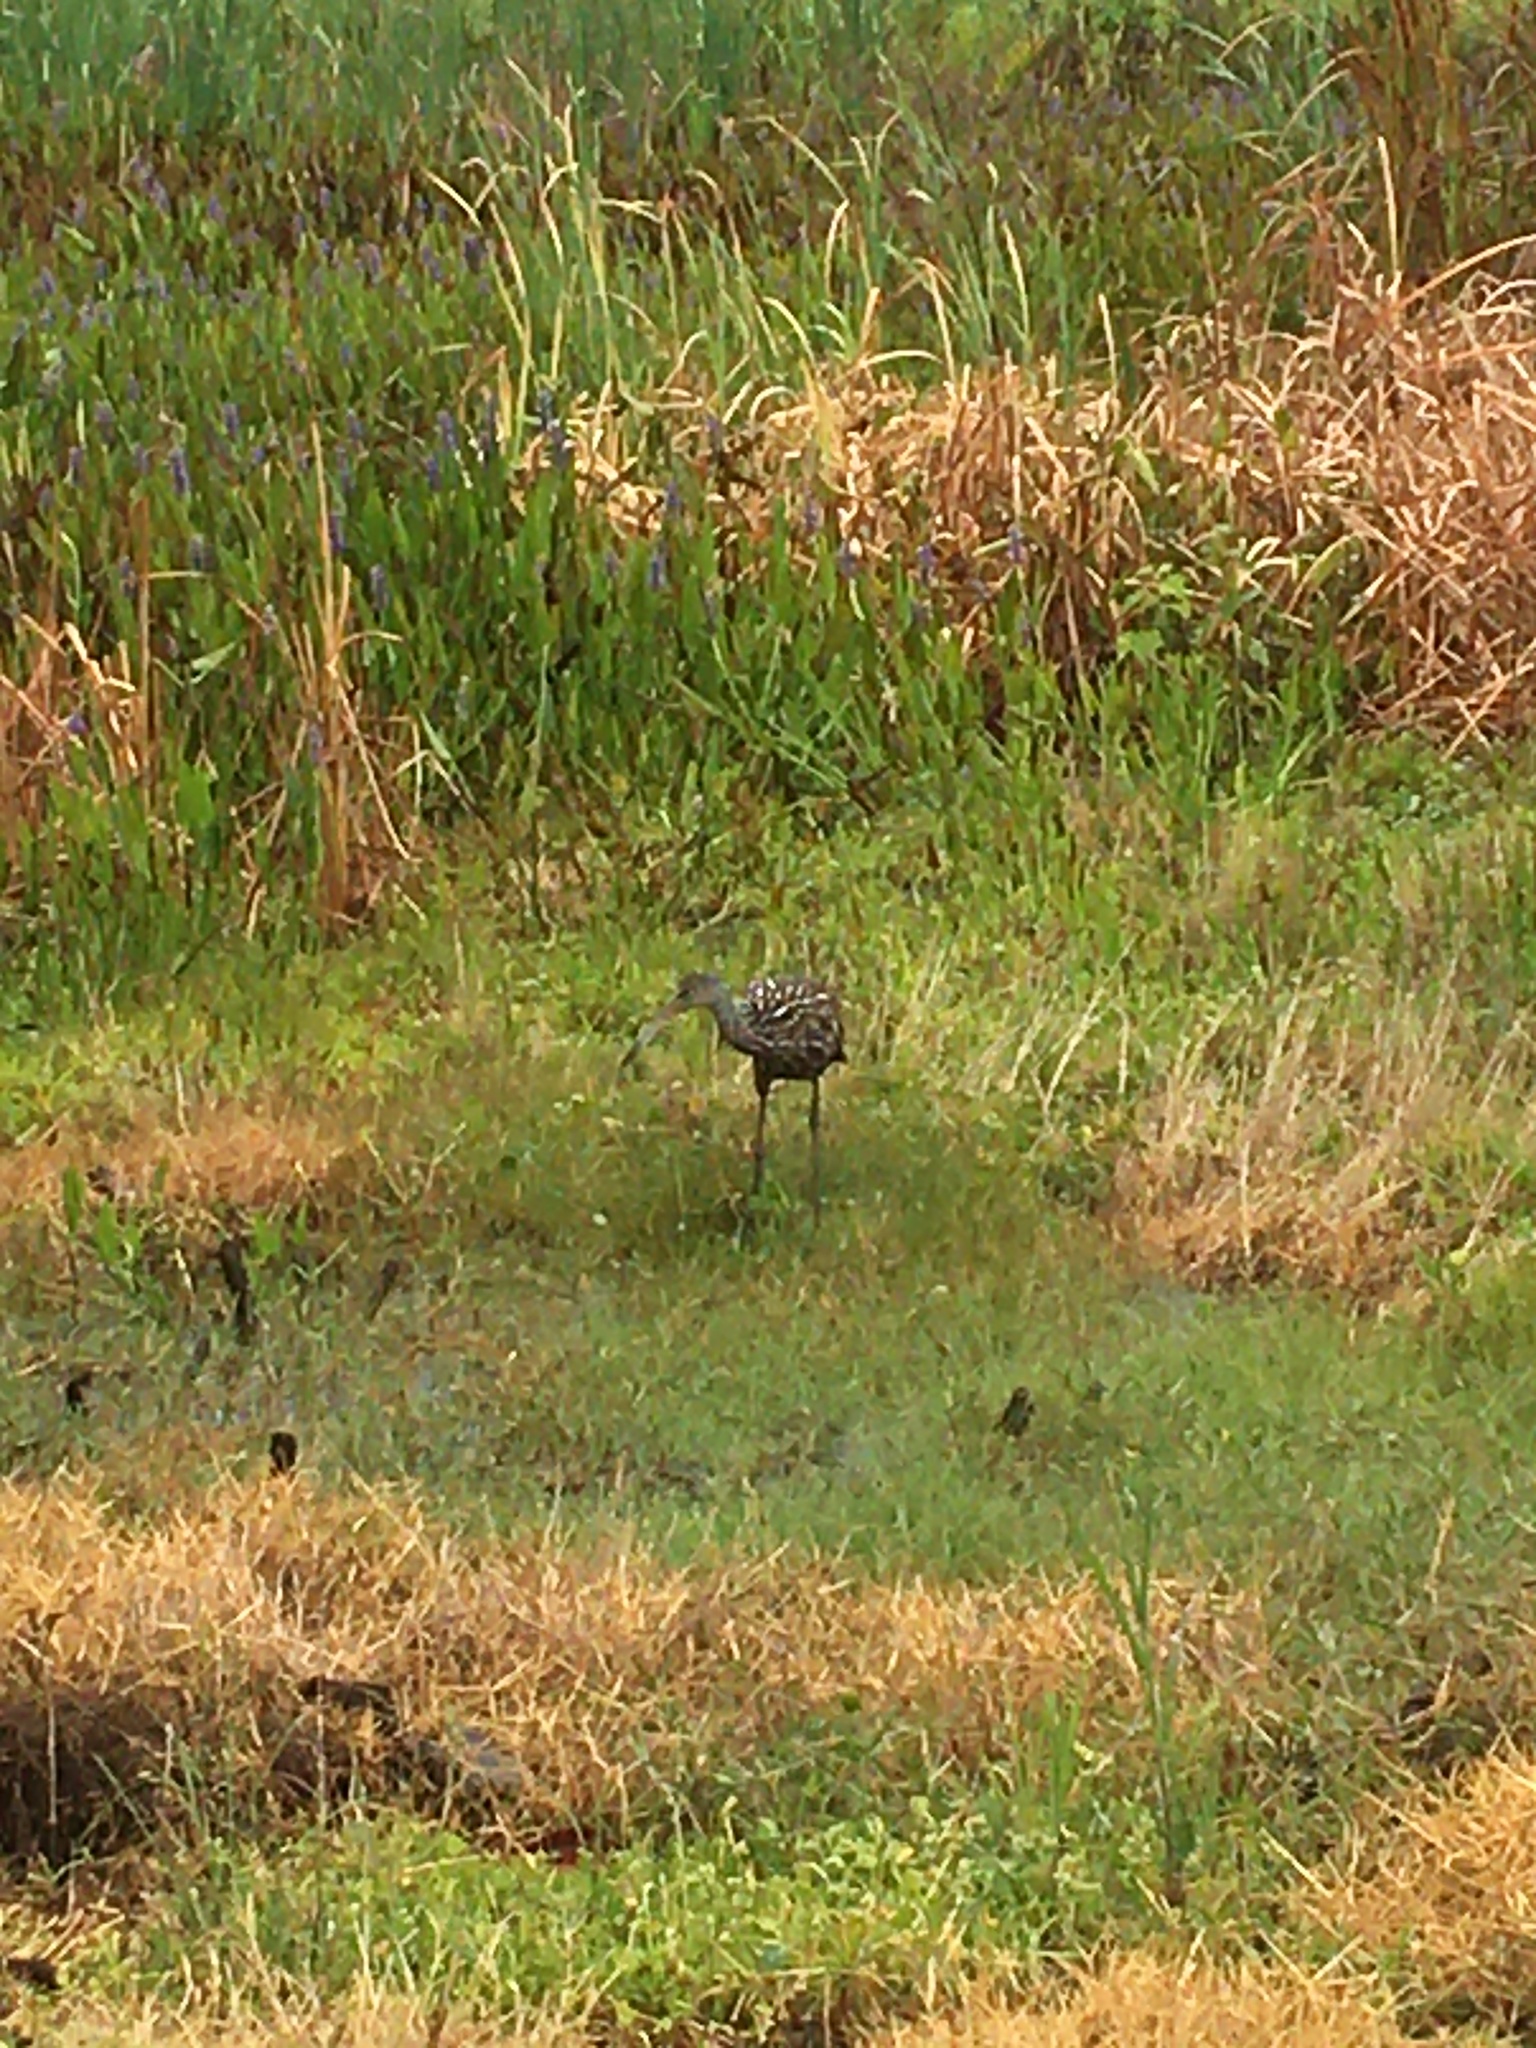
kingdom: Animalia
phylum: Chordata
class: Aves
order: Gruiformes
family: Aramidae
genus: Aramus
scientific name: Aramus guarauna
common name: Limpkin
